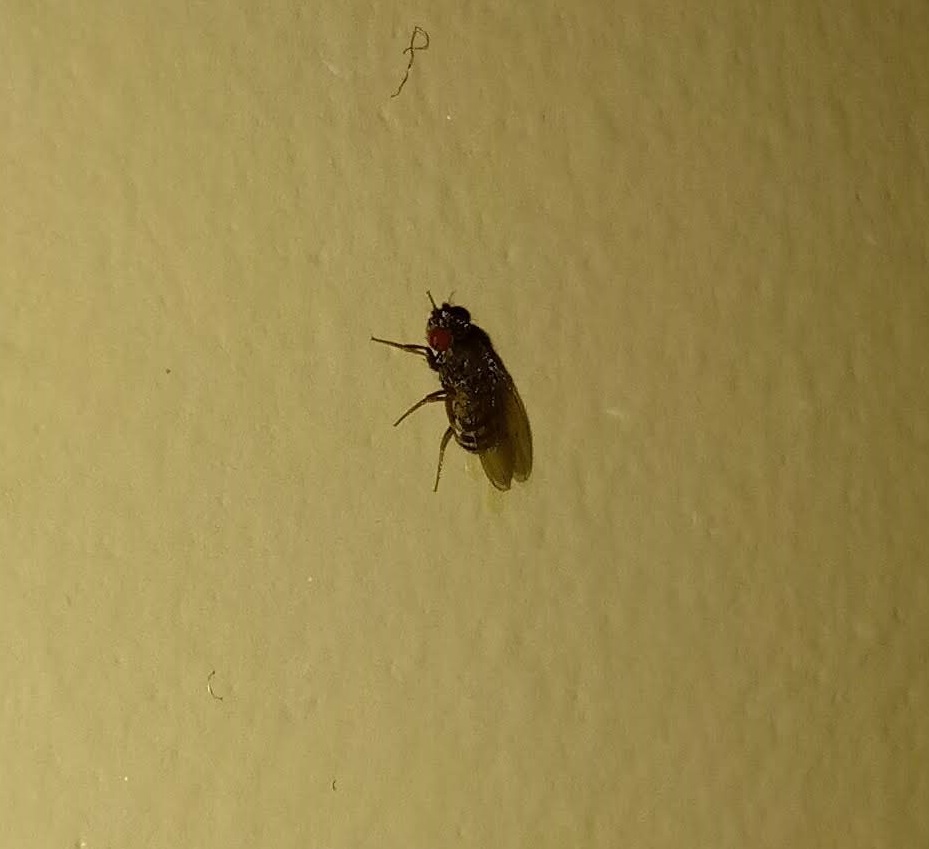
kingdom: Animalia
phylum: Arthropoda
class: Insecta
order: Diptera
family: Drosophilidae
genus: Drosophila
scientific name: Drosophila repleta
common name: Pomace fly
